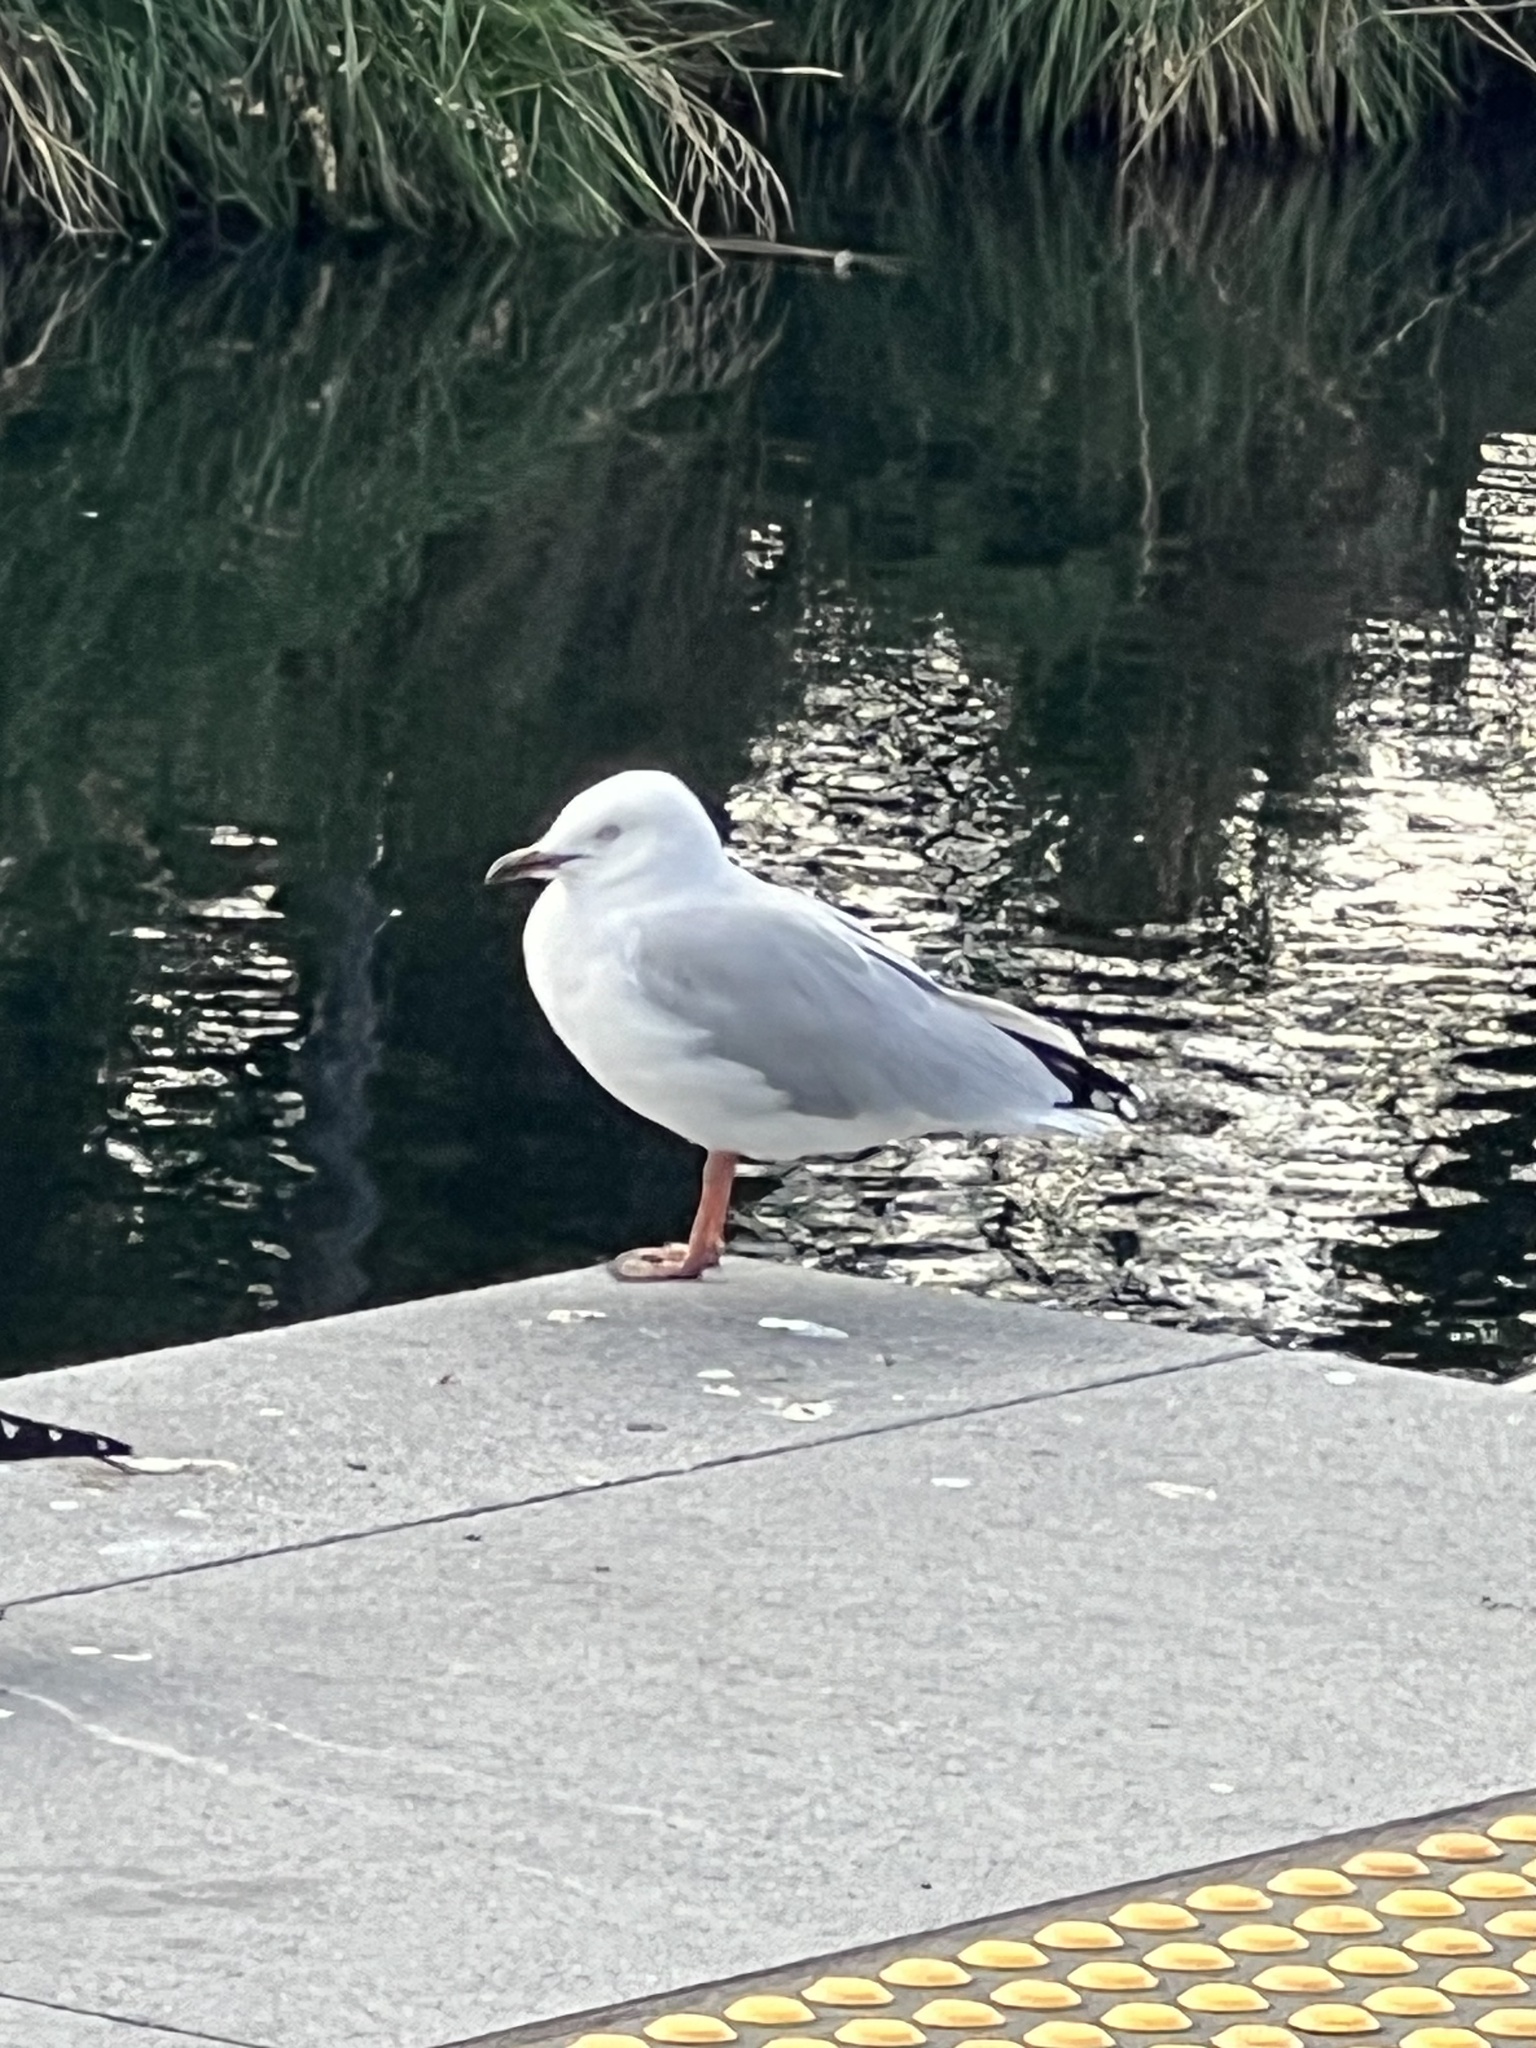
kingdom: Animalia
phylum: Chordata
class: Aves
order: Charadriiformes
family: Laridae
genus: Chroicocephalus
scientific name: Chroicocephalus novaehollandiae
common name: Silver gull
